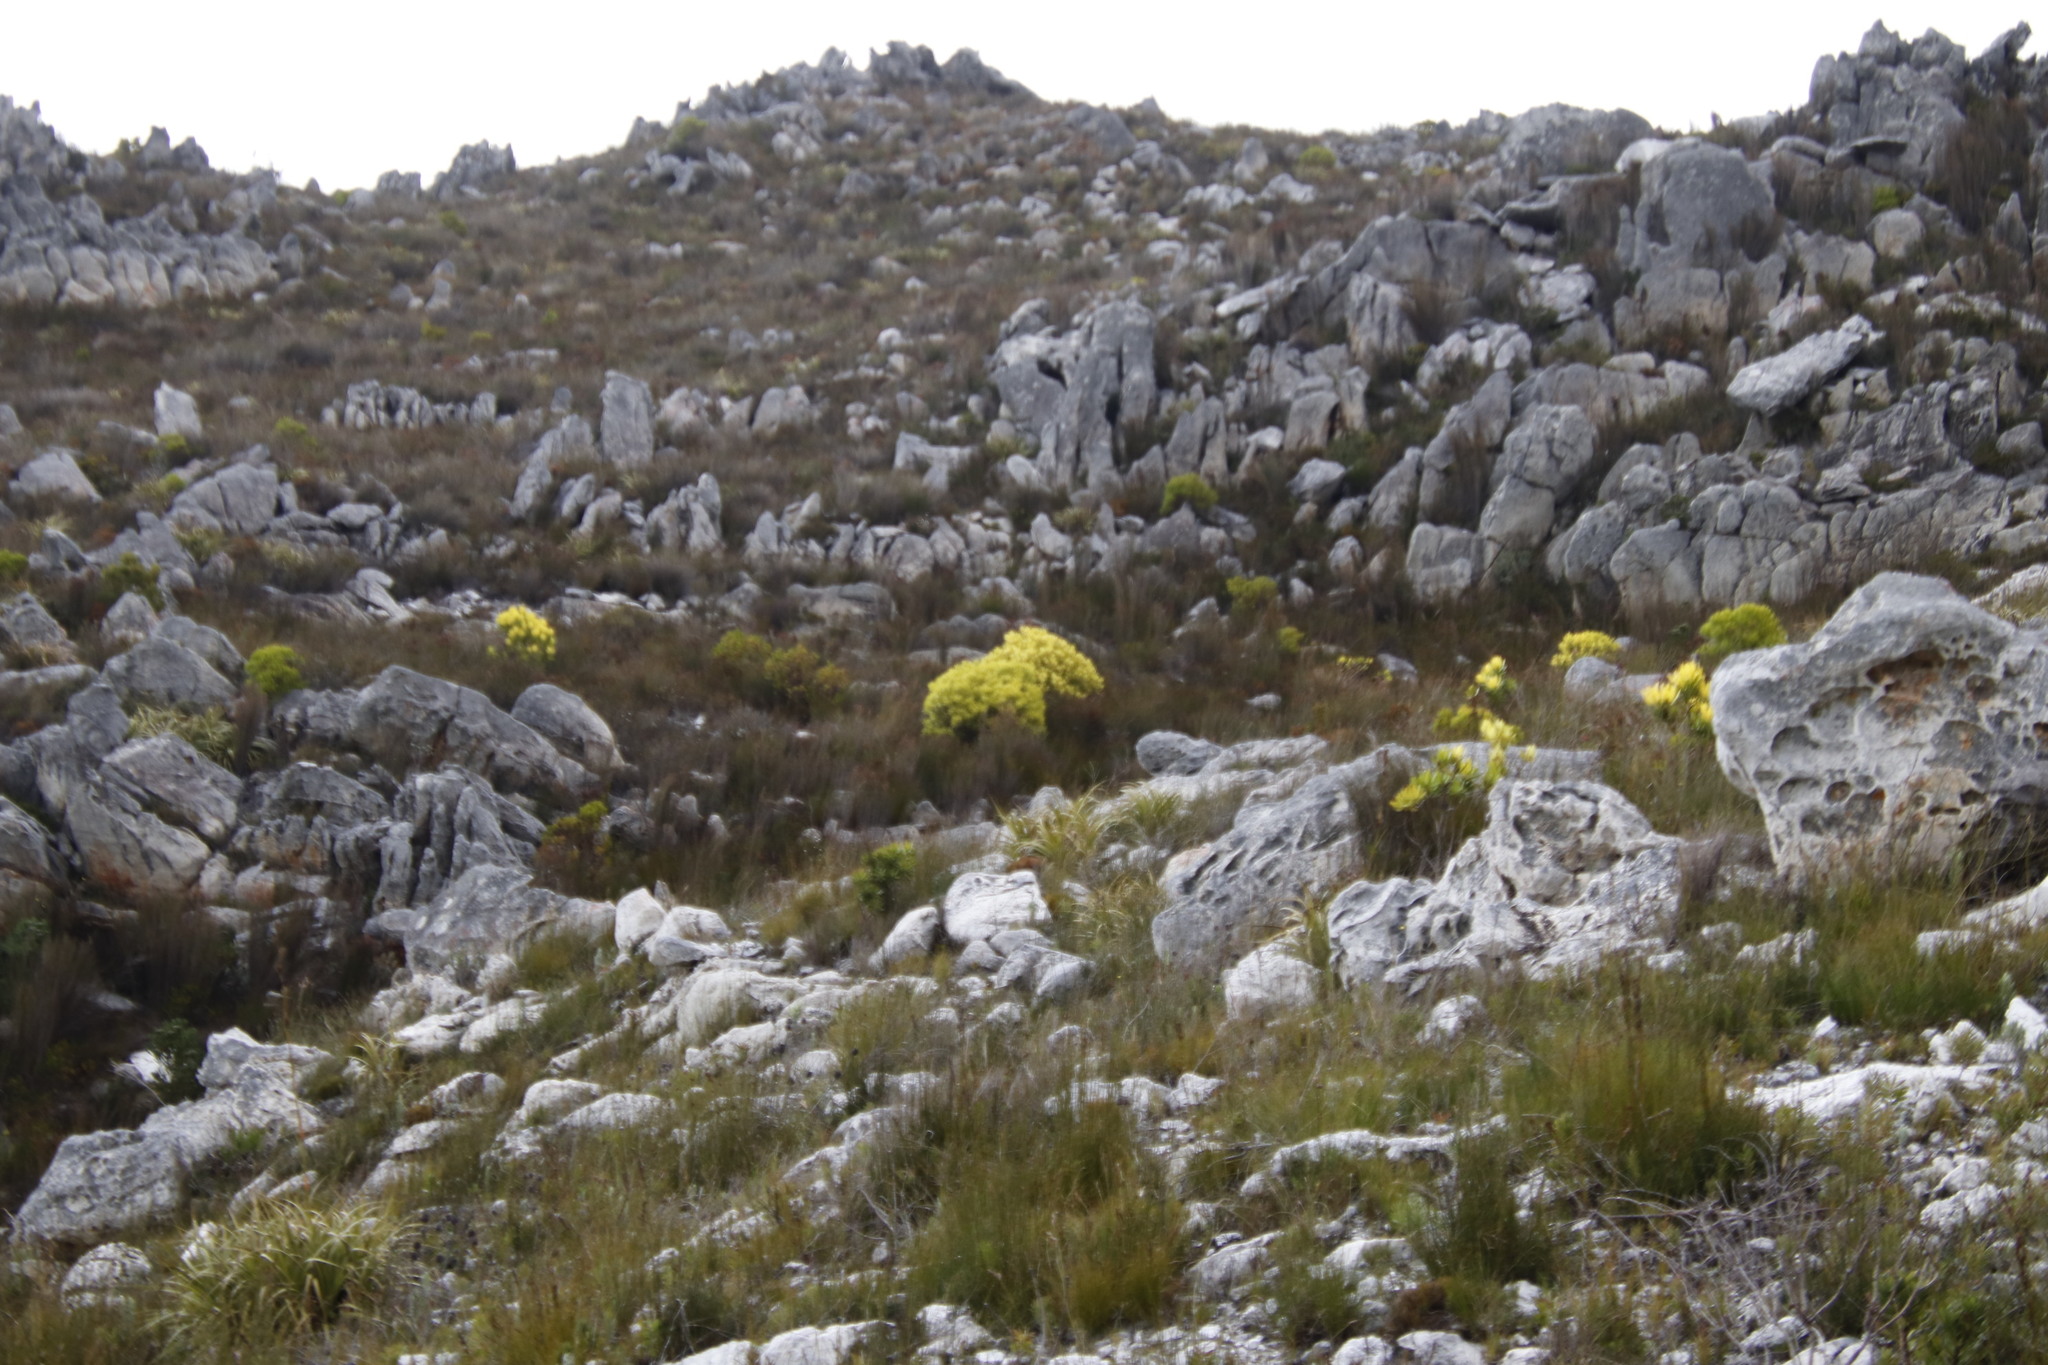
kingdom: Plantae
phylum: Tracheophyta
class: Magnoliopsida
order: Proteales
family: Proteaceae
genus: Leucadendron
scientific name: Leucadendron microcephalum
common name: Oilbract conebush
